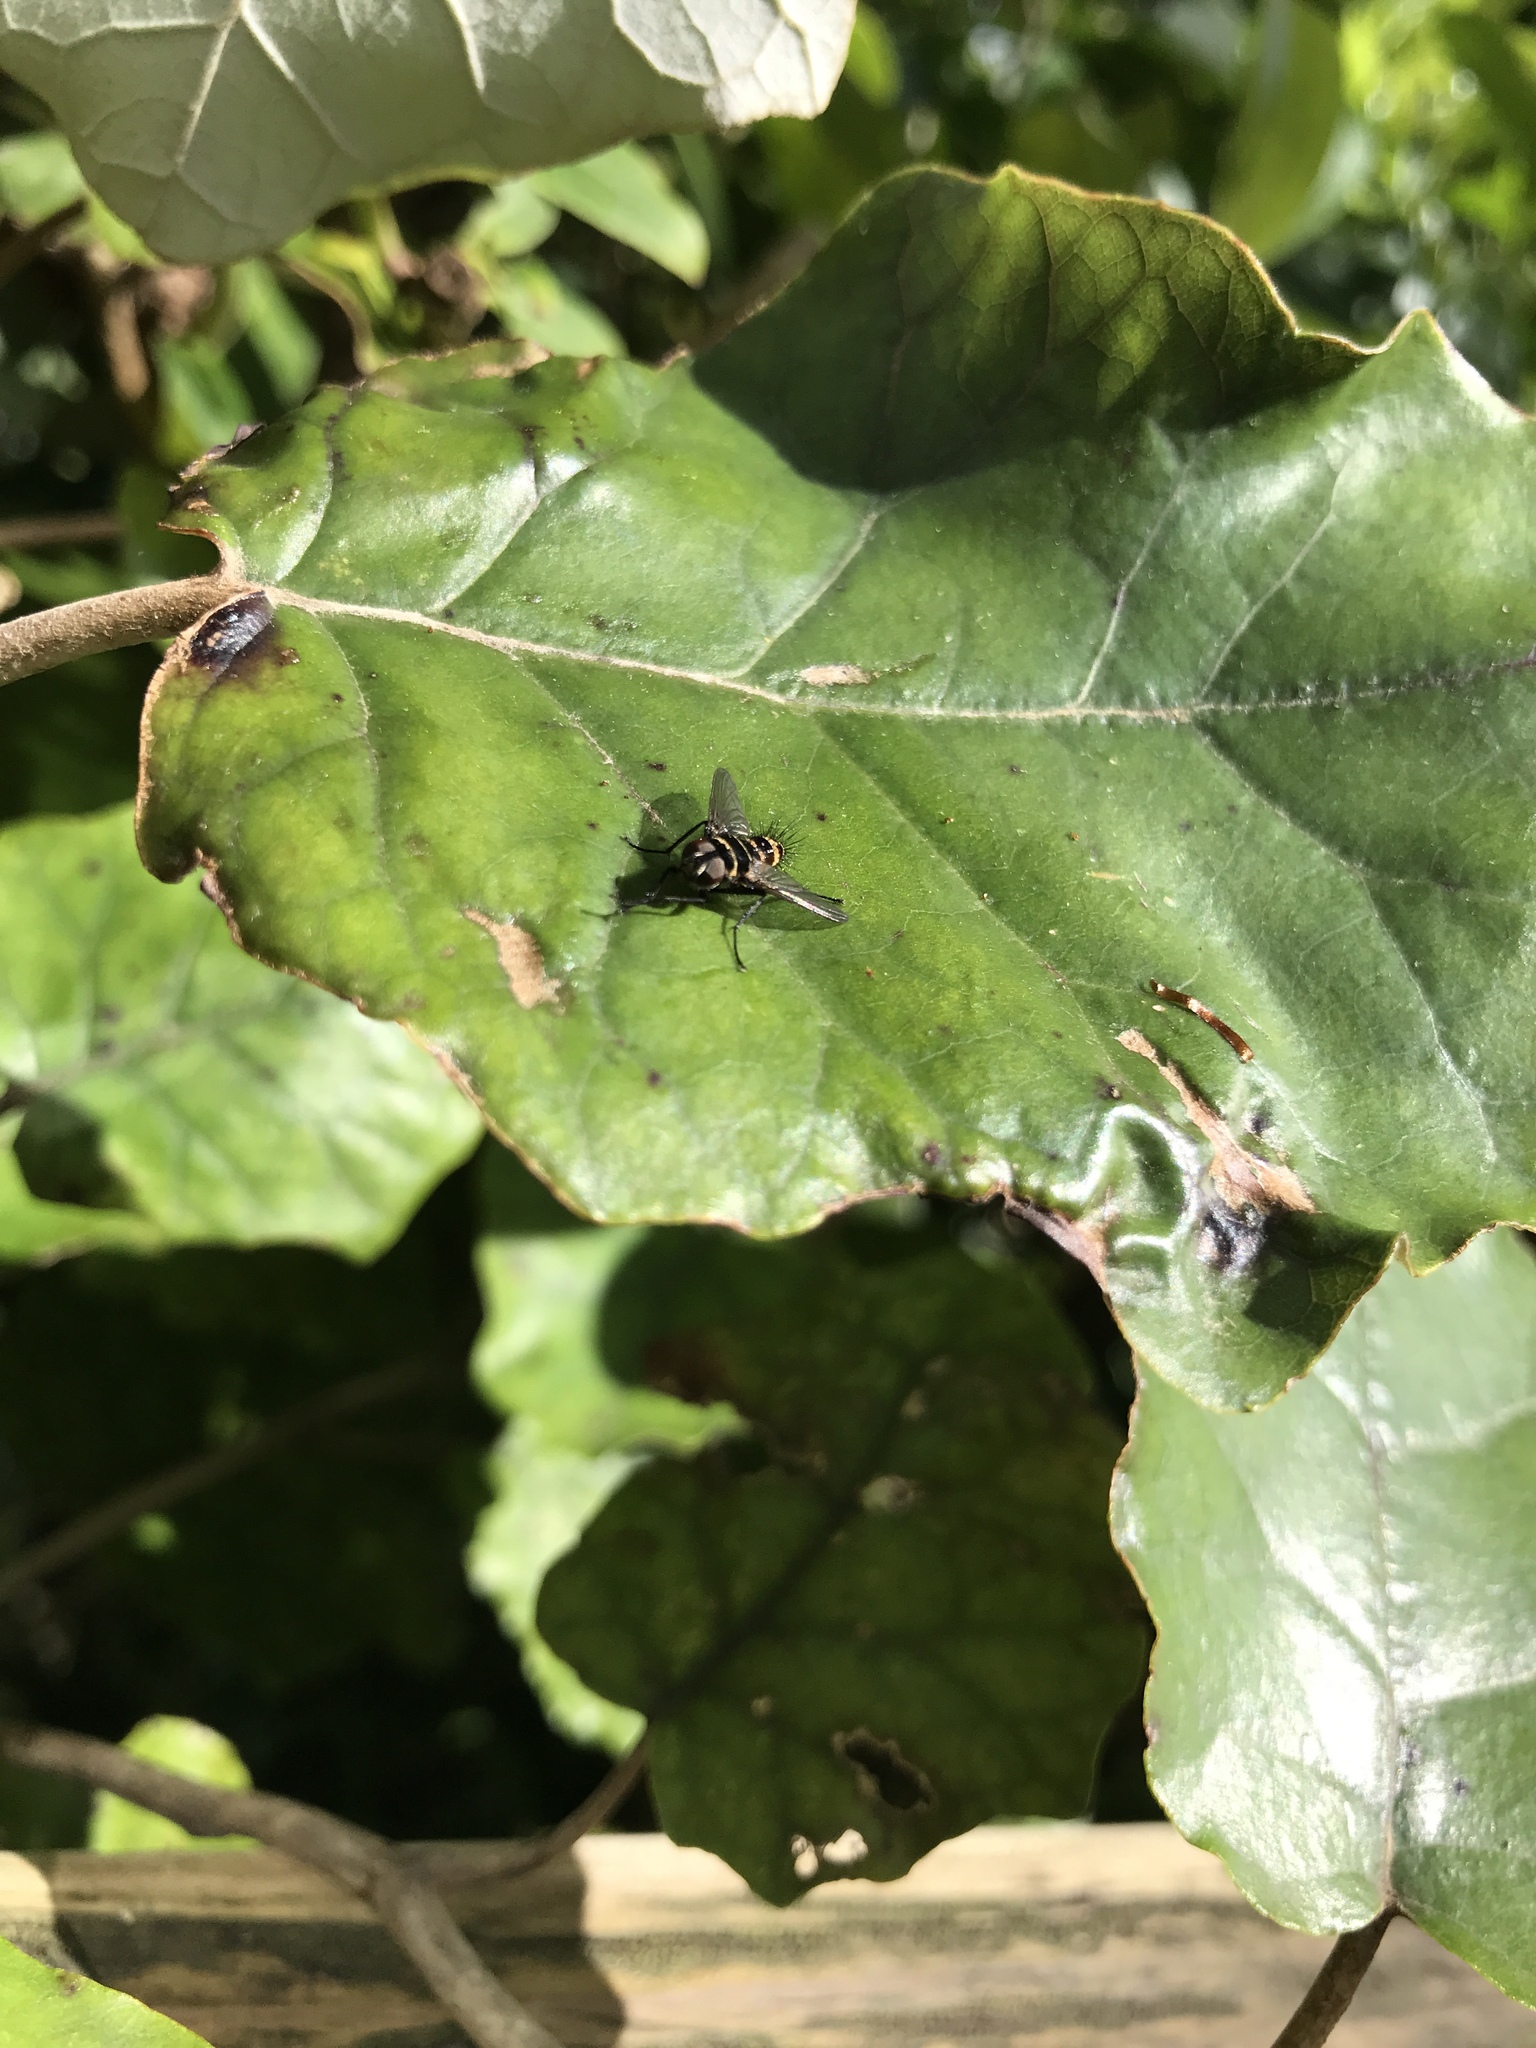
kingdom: Animalia
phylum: Arthropoda
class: Insecta
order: Diptera
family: Tachinidae
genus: Trigonospila
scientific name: Trigonospila brevifacies
